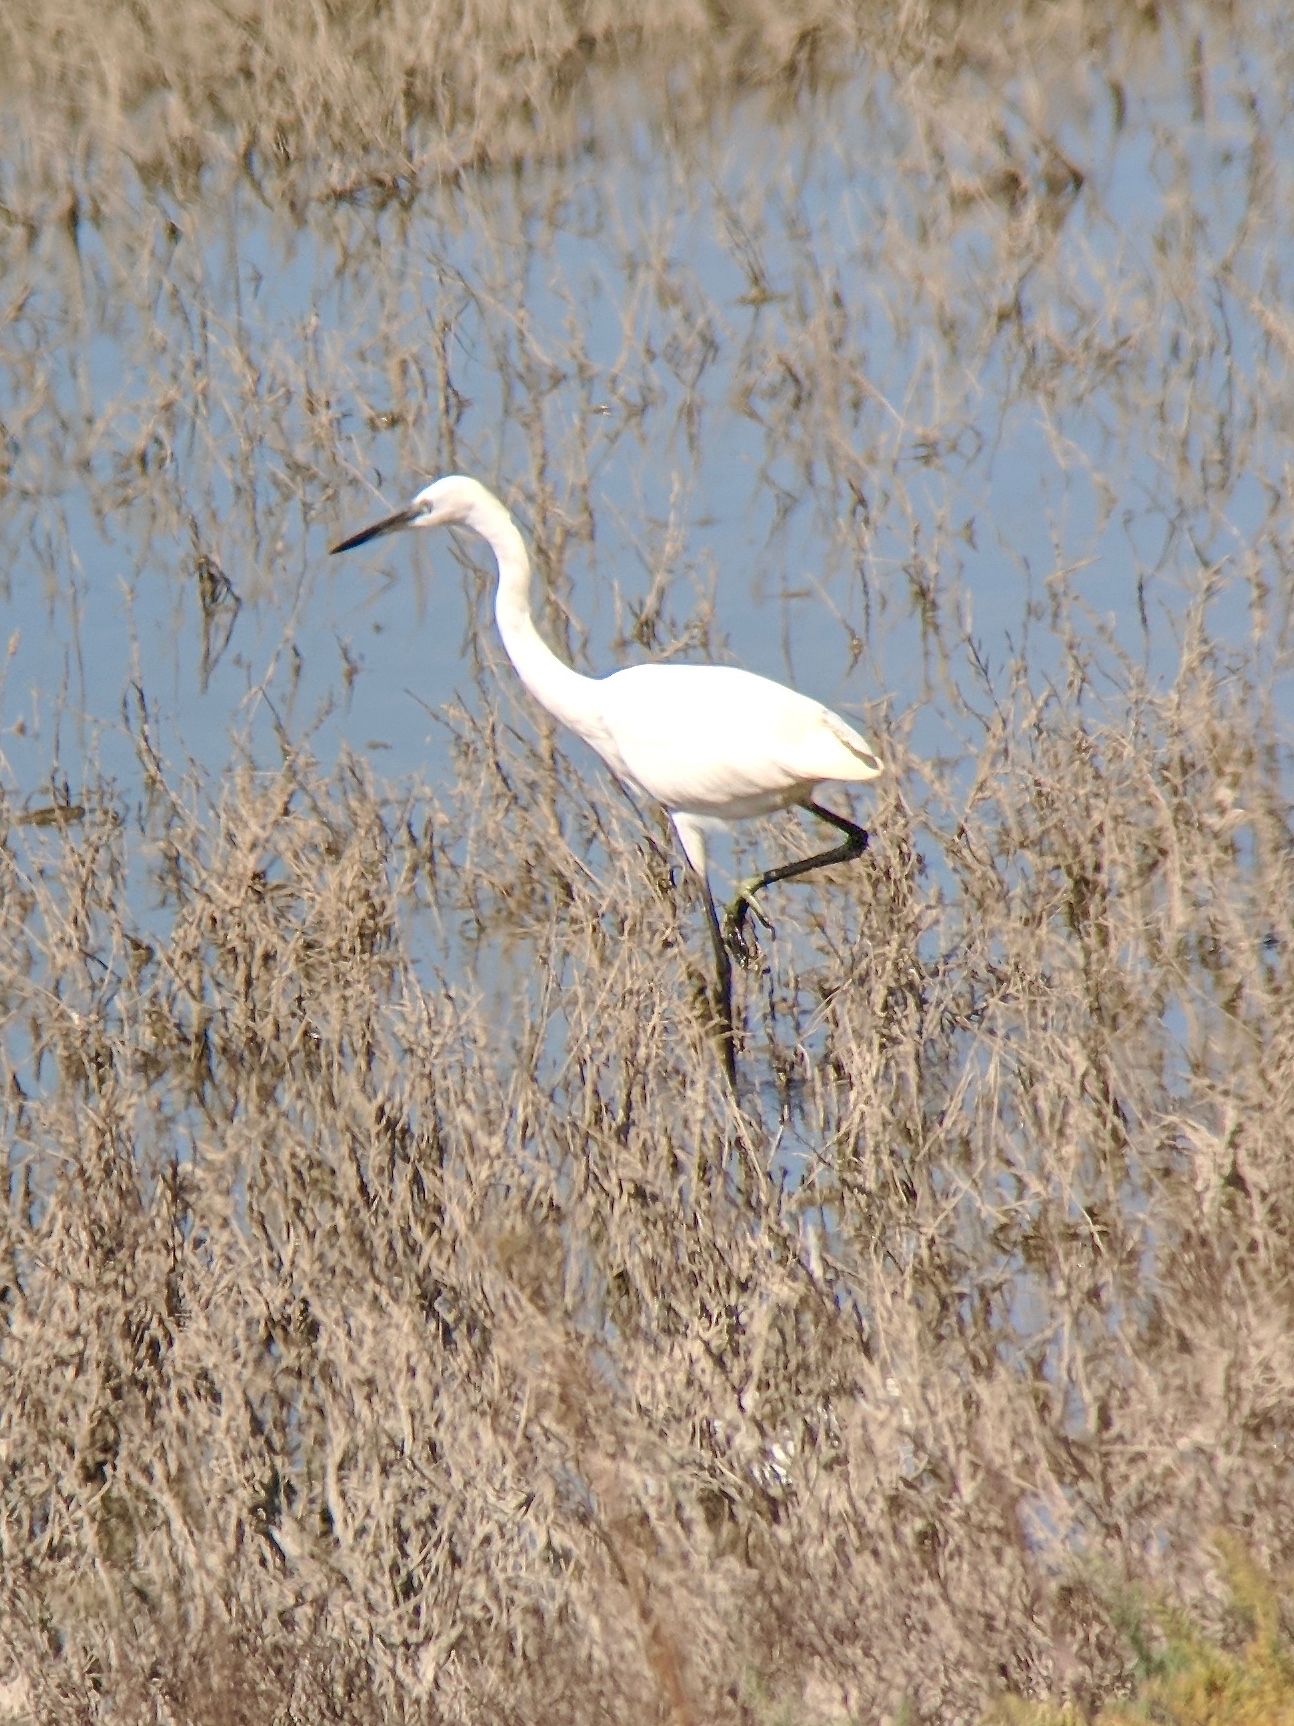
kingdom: Animalia
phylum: Chordata
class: Aves
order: Pelecaniformes
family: Ardeidae
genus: Egretta
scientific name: Egretta garzetta
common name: Little egret
